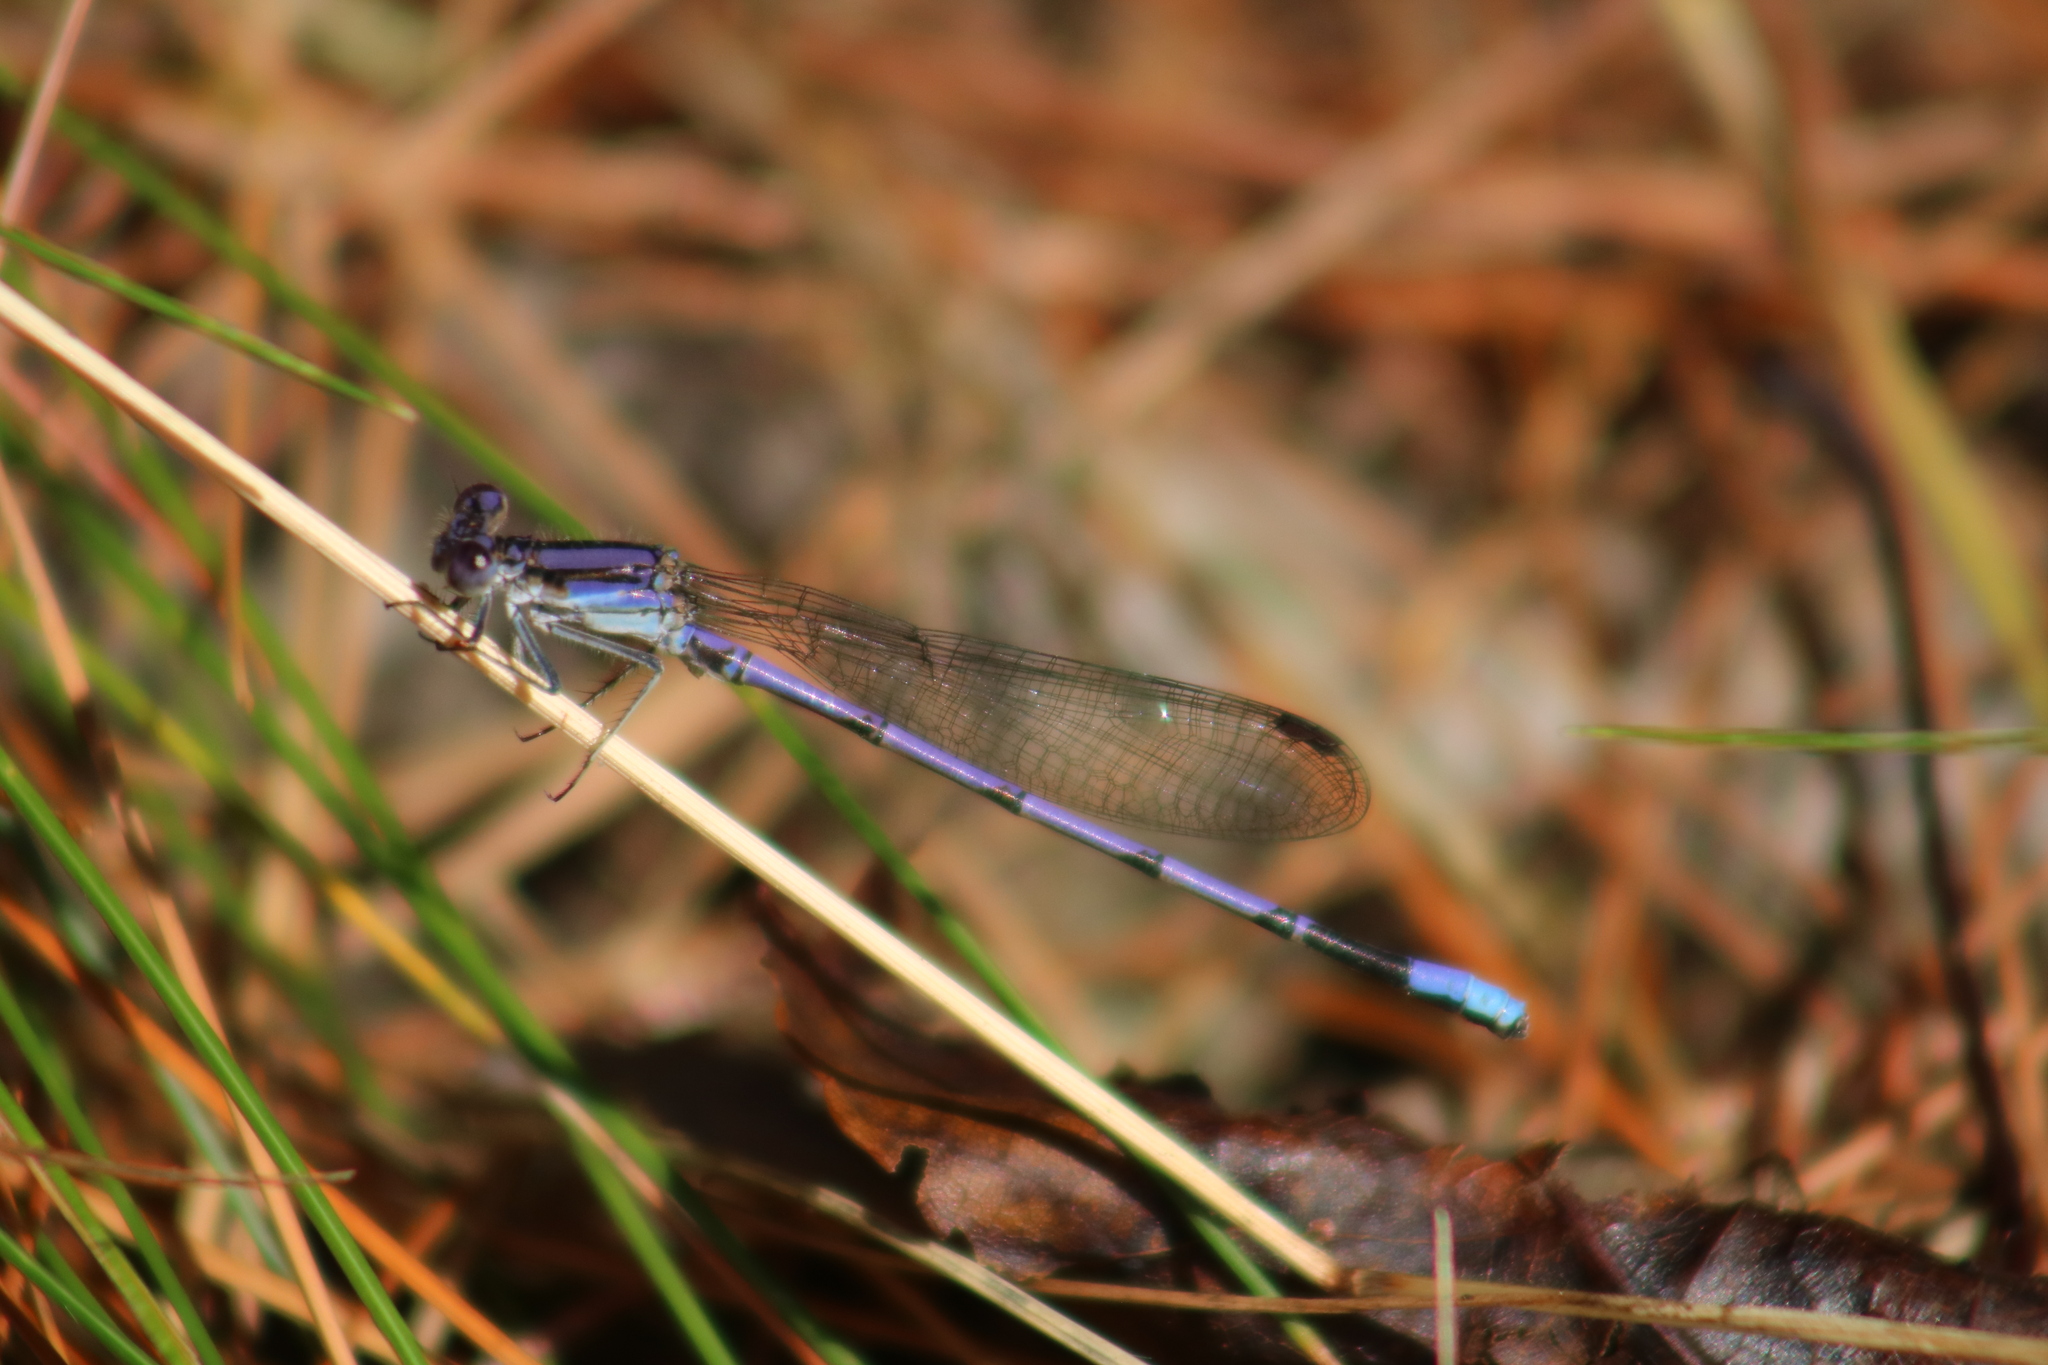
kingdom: Animalia
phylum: Arthropoda
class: Insecta
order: Odonata
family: Coenagrionidae
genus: Argia
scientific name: Argia fumipennis
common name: Variable dancer
